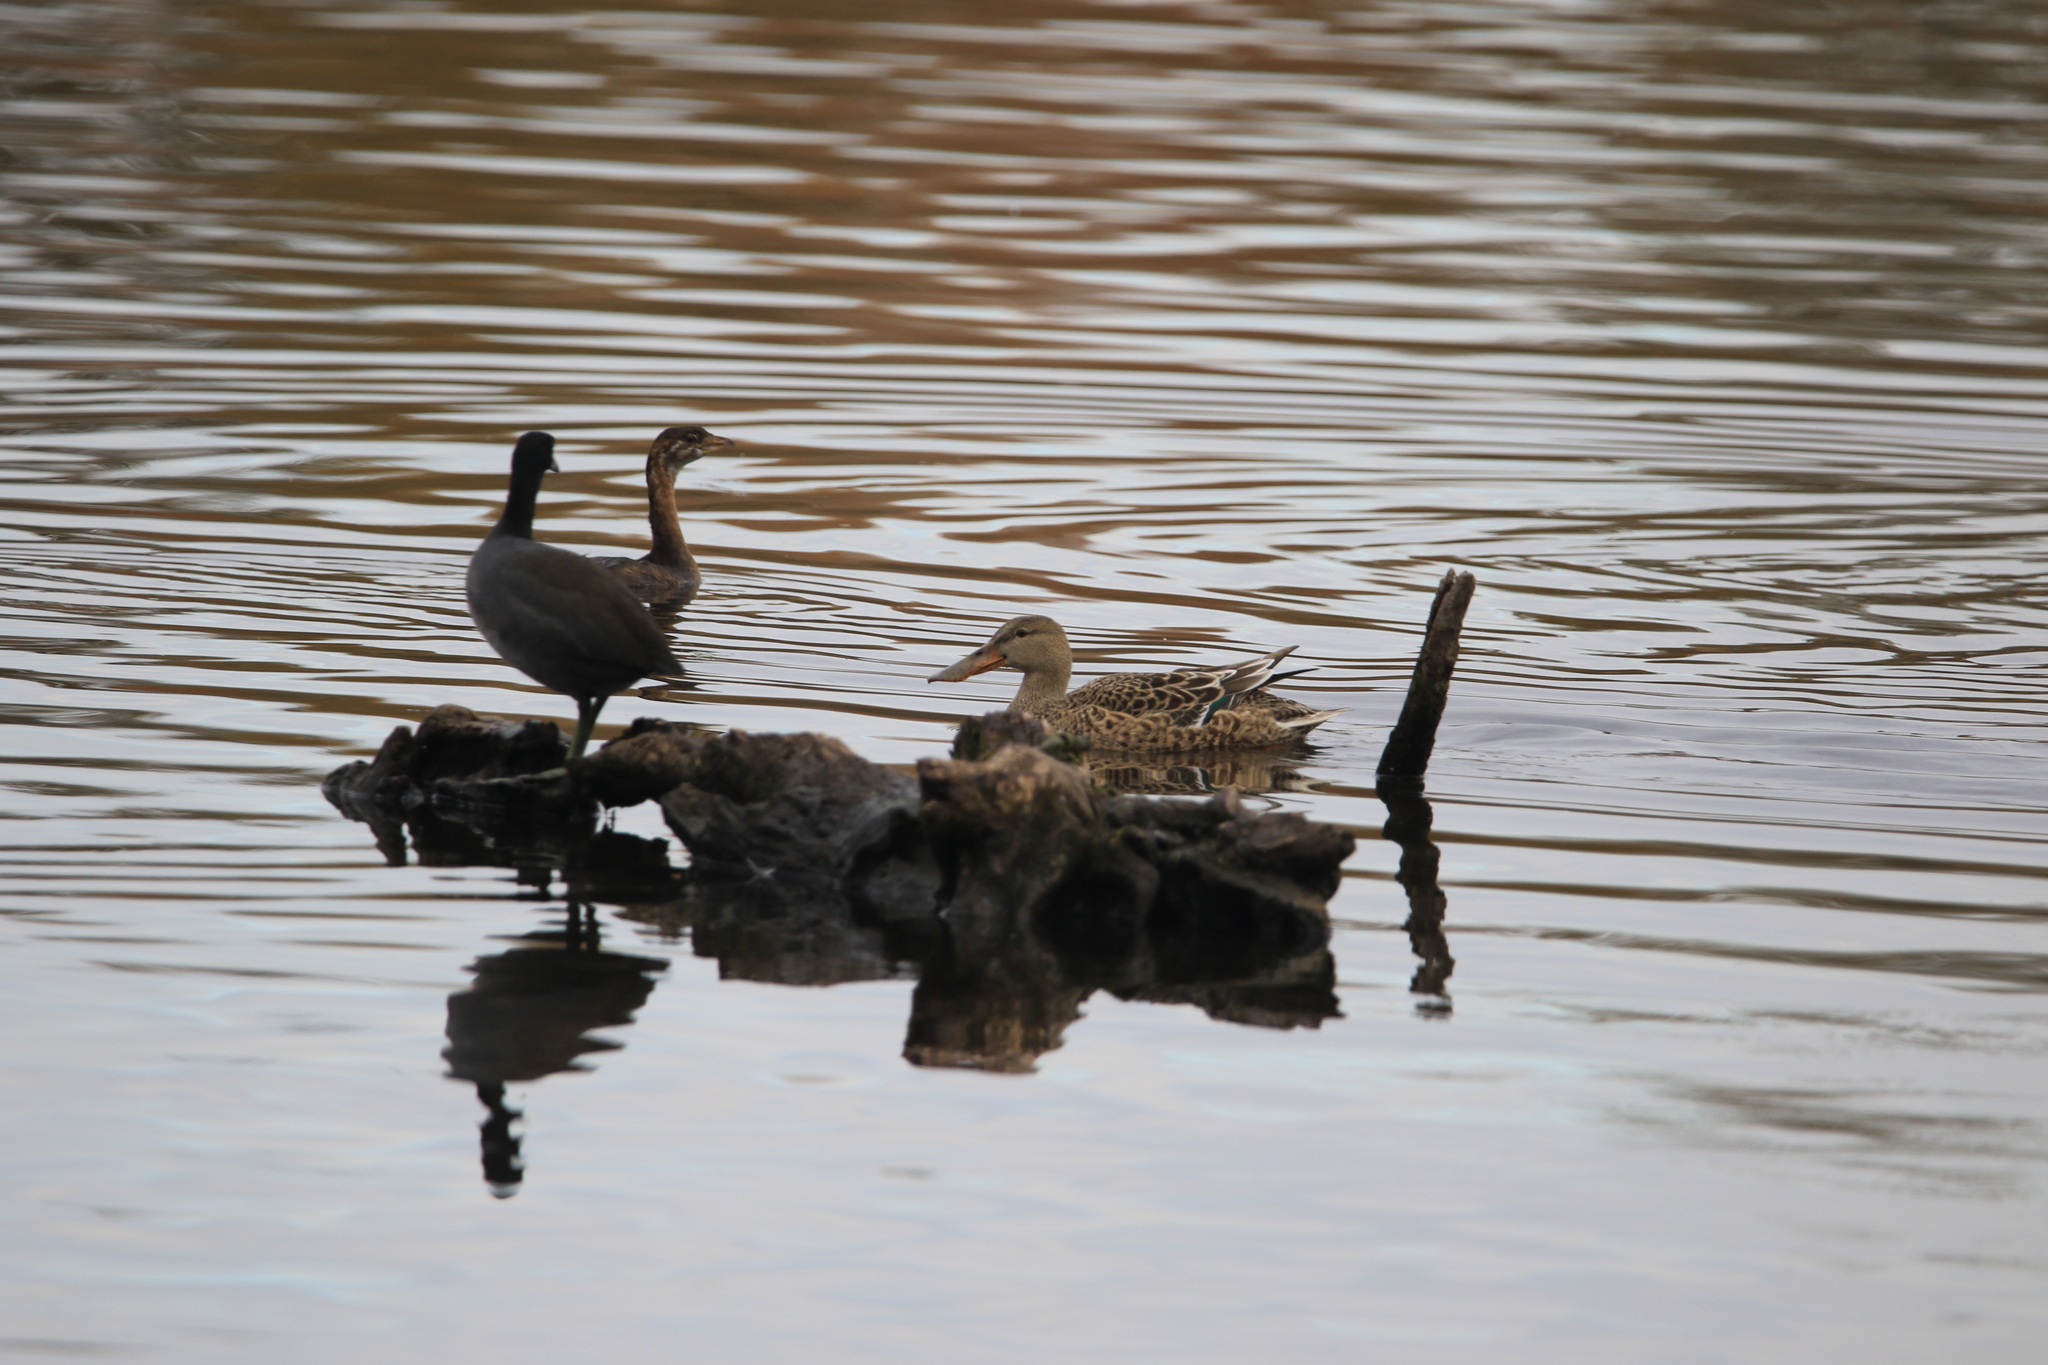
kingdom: Animalia
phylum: Chordata
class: Aves
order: Anseriformes
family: Anatidae
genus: Spatula
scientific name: Spatula clypeata
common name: Northern shoveler
